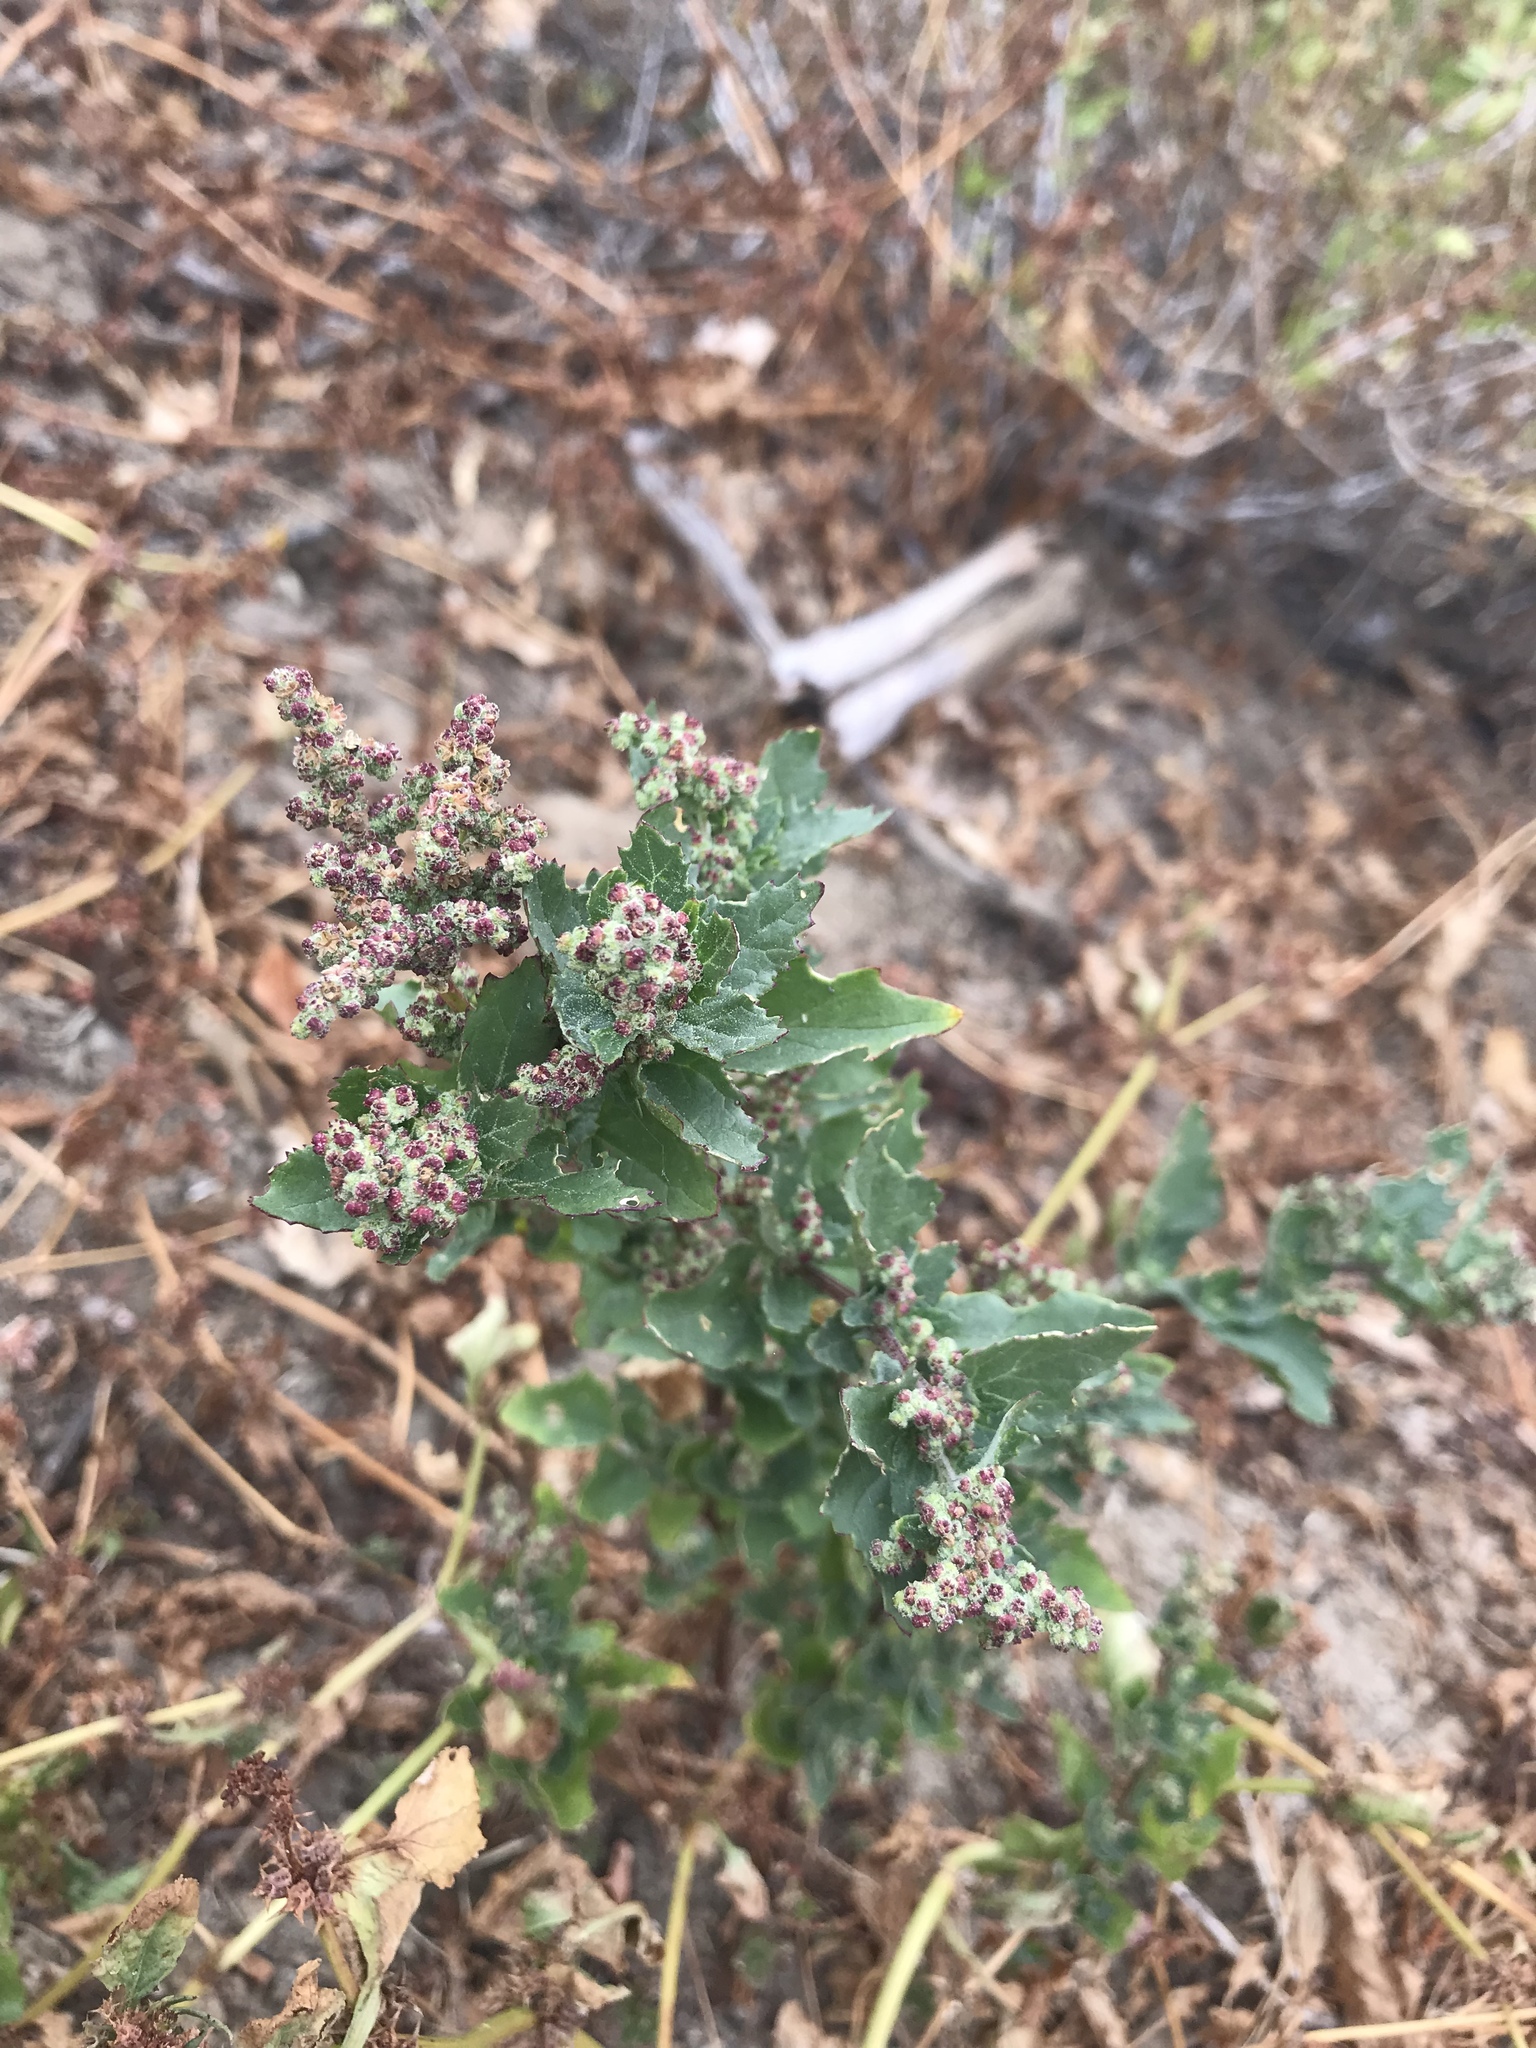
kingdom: Plantae
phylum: Tracheophyta
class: Magnoliopsida
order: Caryophyllales
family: Amaranthaceae
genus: Chenopodiastrum
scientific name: Chenopodiastrum murale
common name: Sowbane
